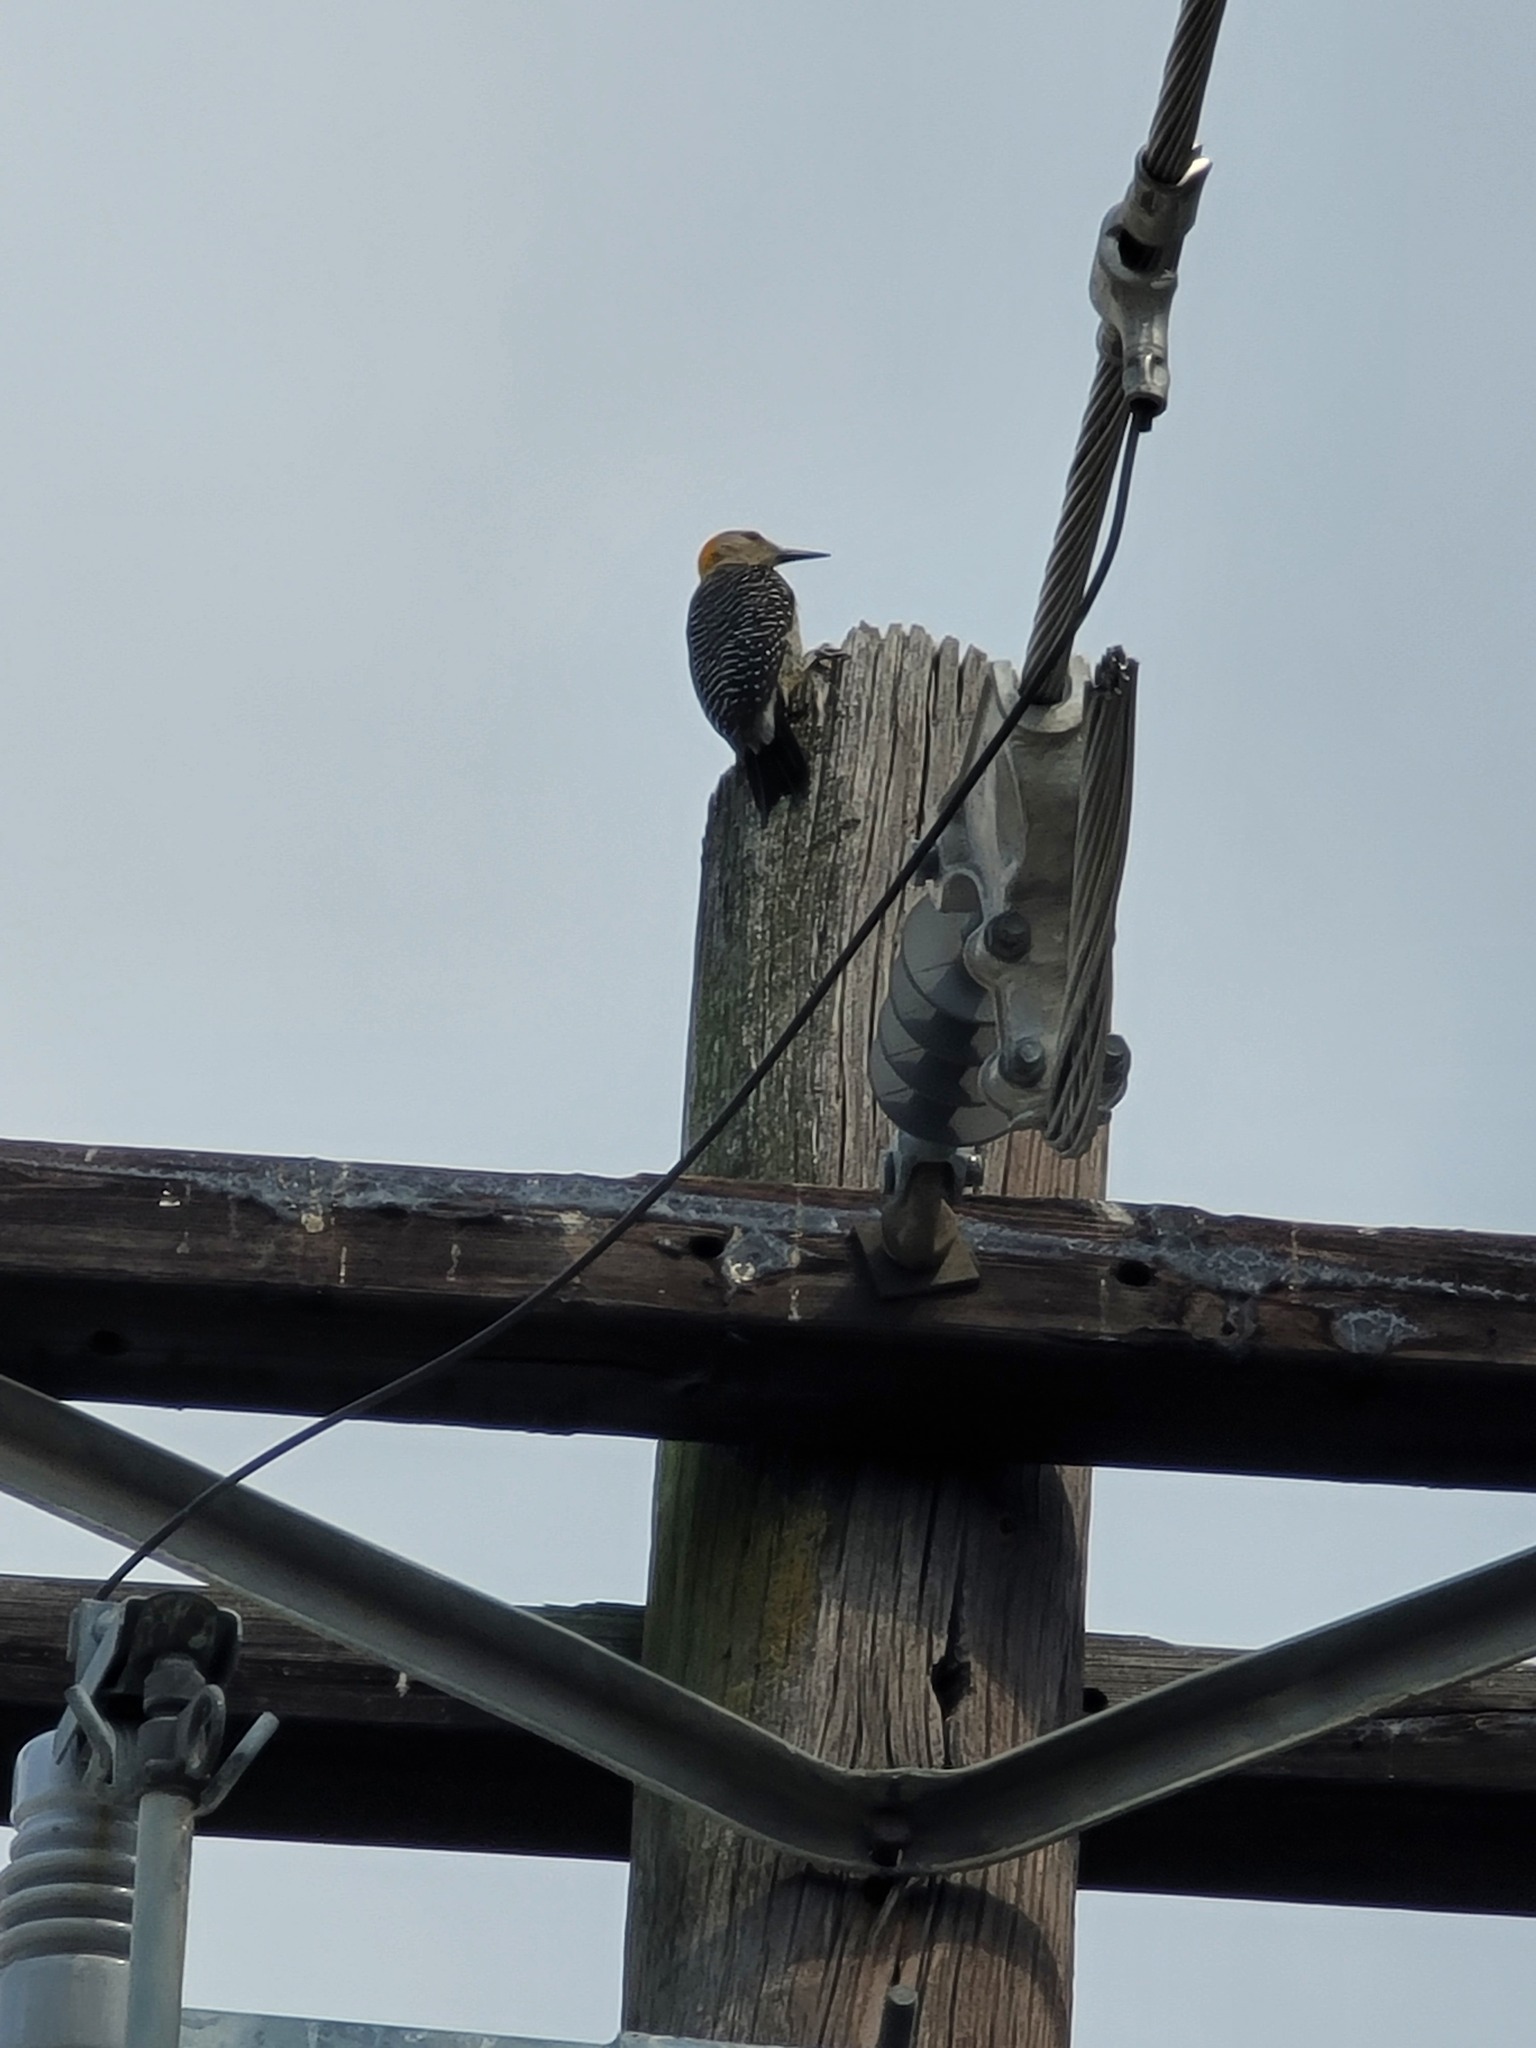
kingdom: Animalia
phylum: Chordata
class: Aves
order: Piciformes
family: Picidae
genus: Melanerpes
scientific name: Melanerpes aurifrons
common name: Golden-fronted woodpecker
